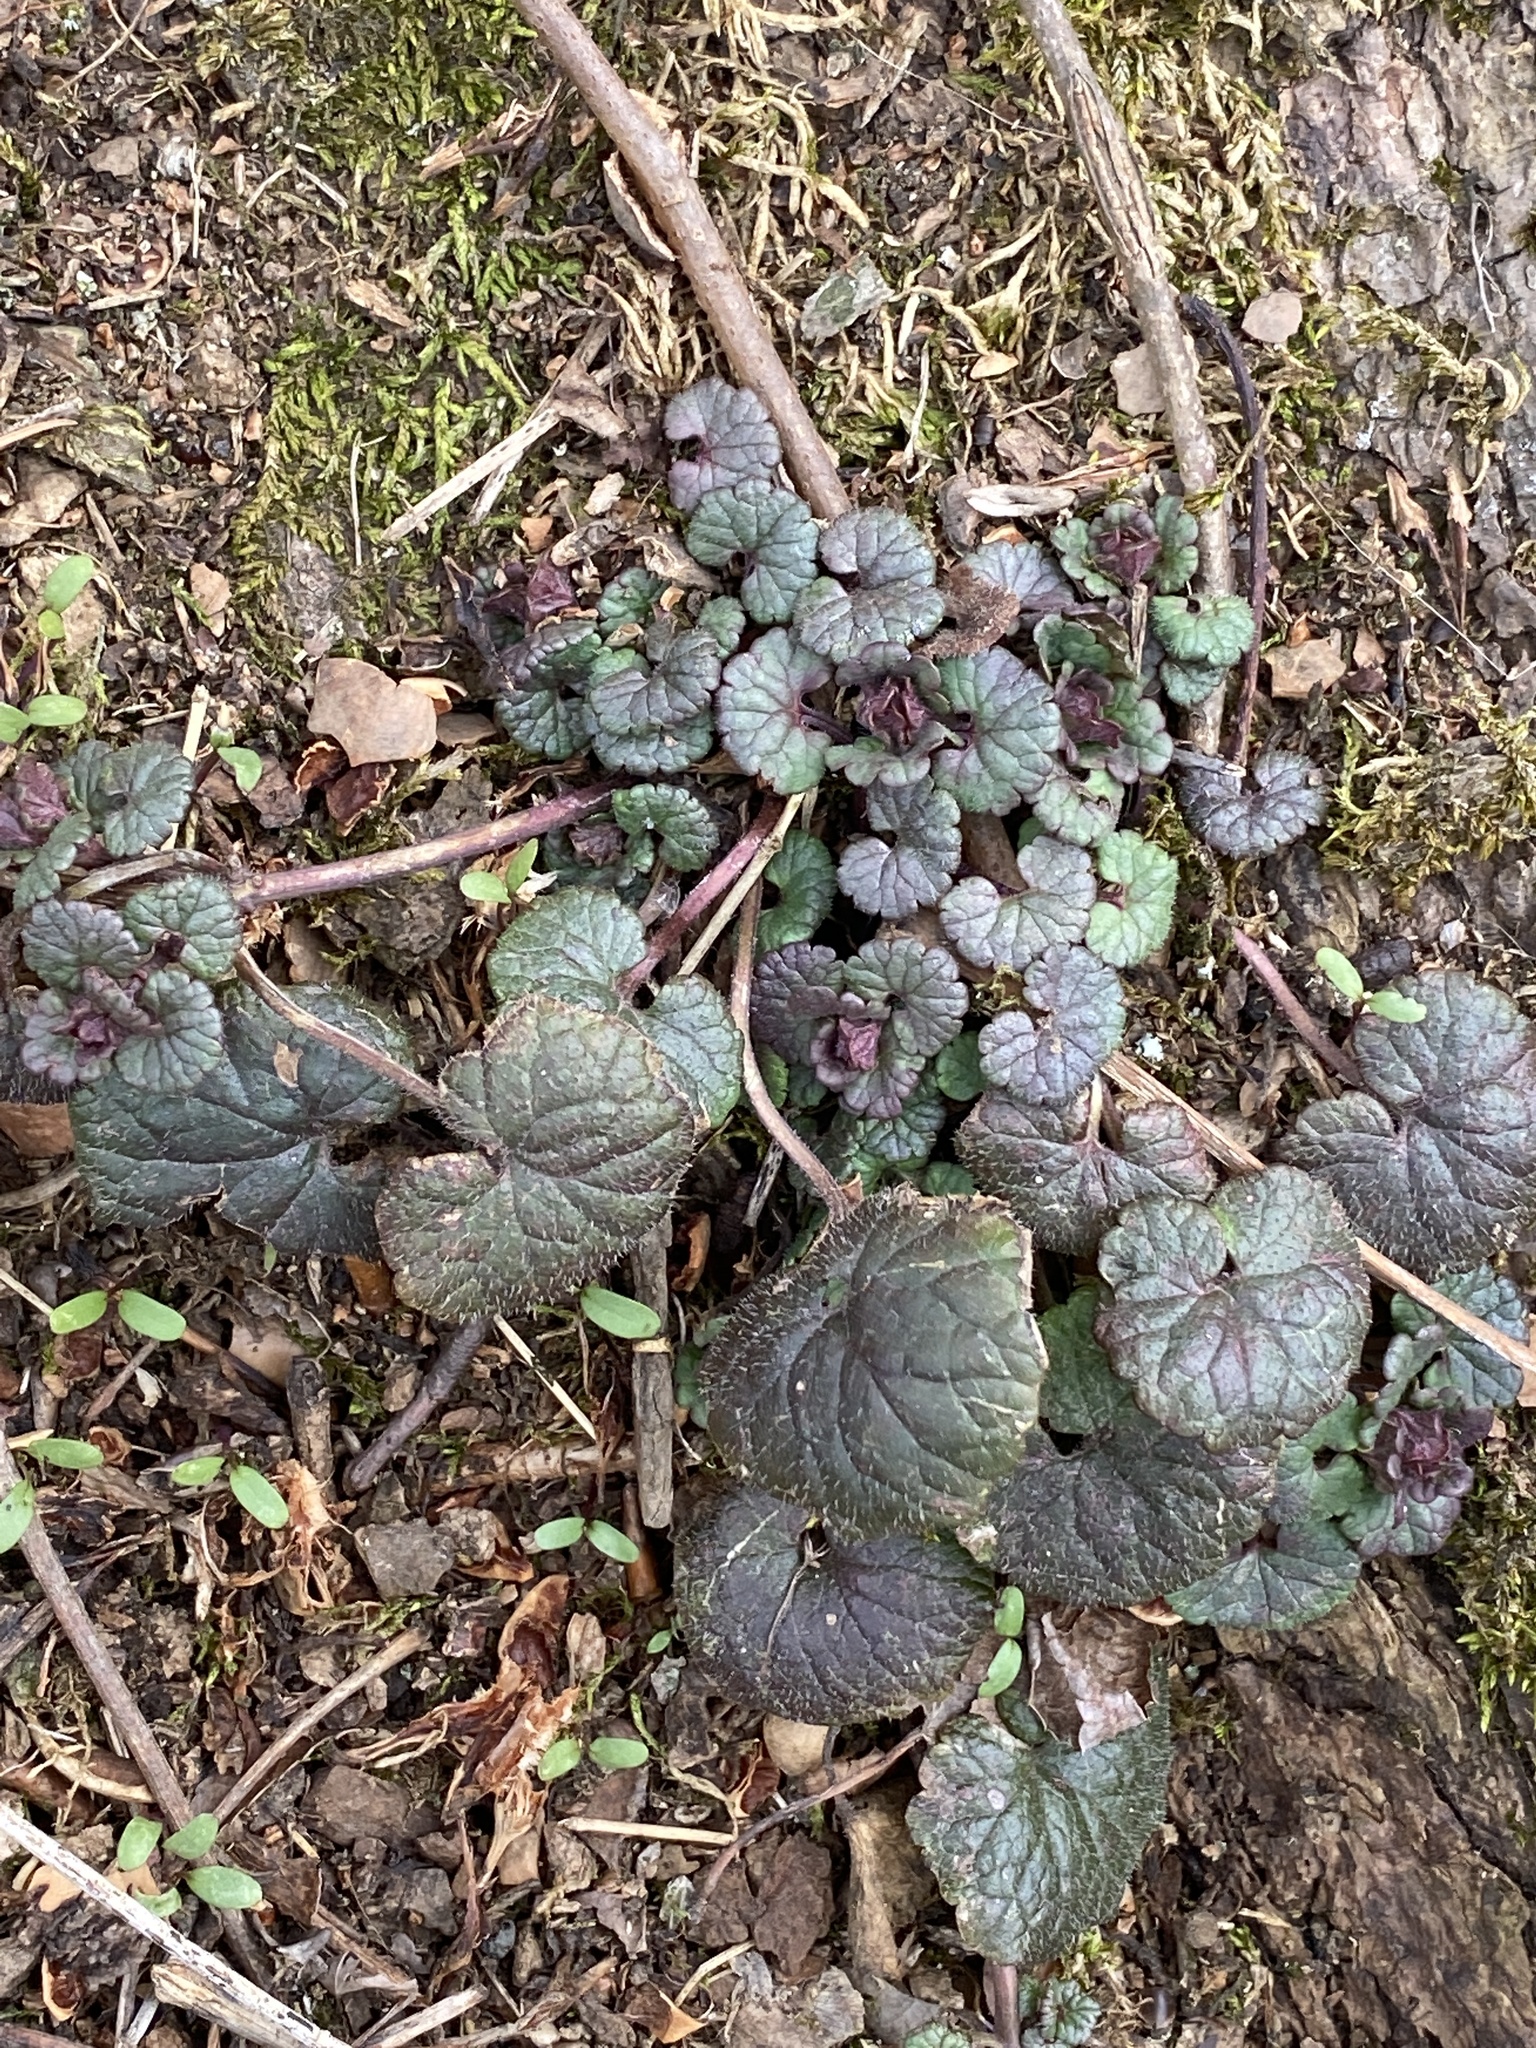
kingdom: Plantae
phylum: Tracheophyta
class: Magnoliopsida
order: Lamiales
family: Lamiaceae
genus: Glechoma
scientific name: Glechoma hederacea
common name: Ground ivy
